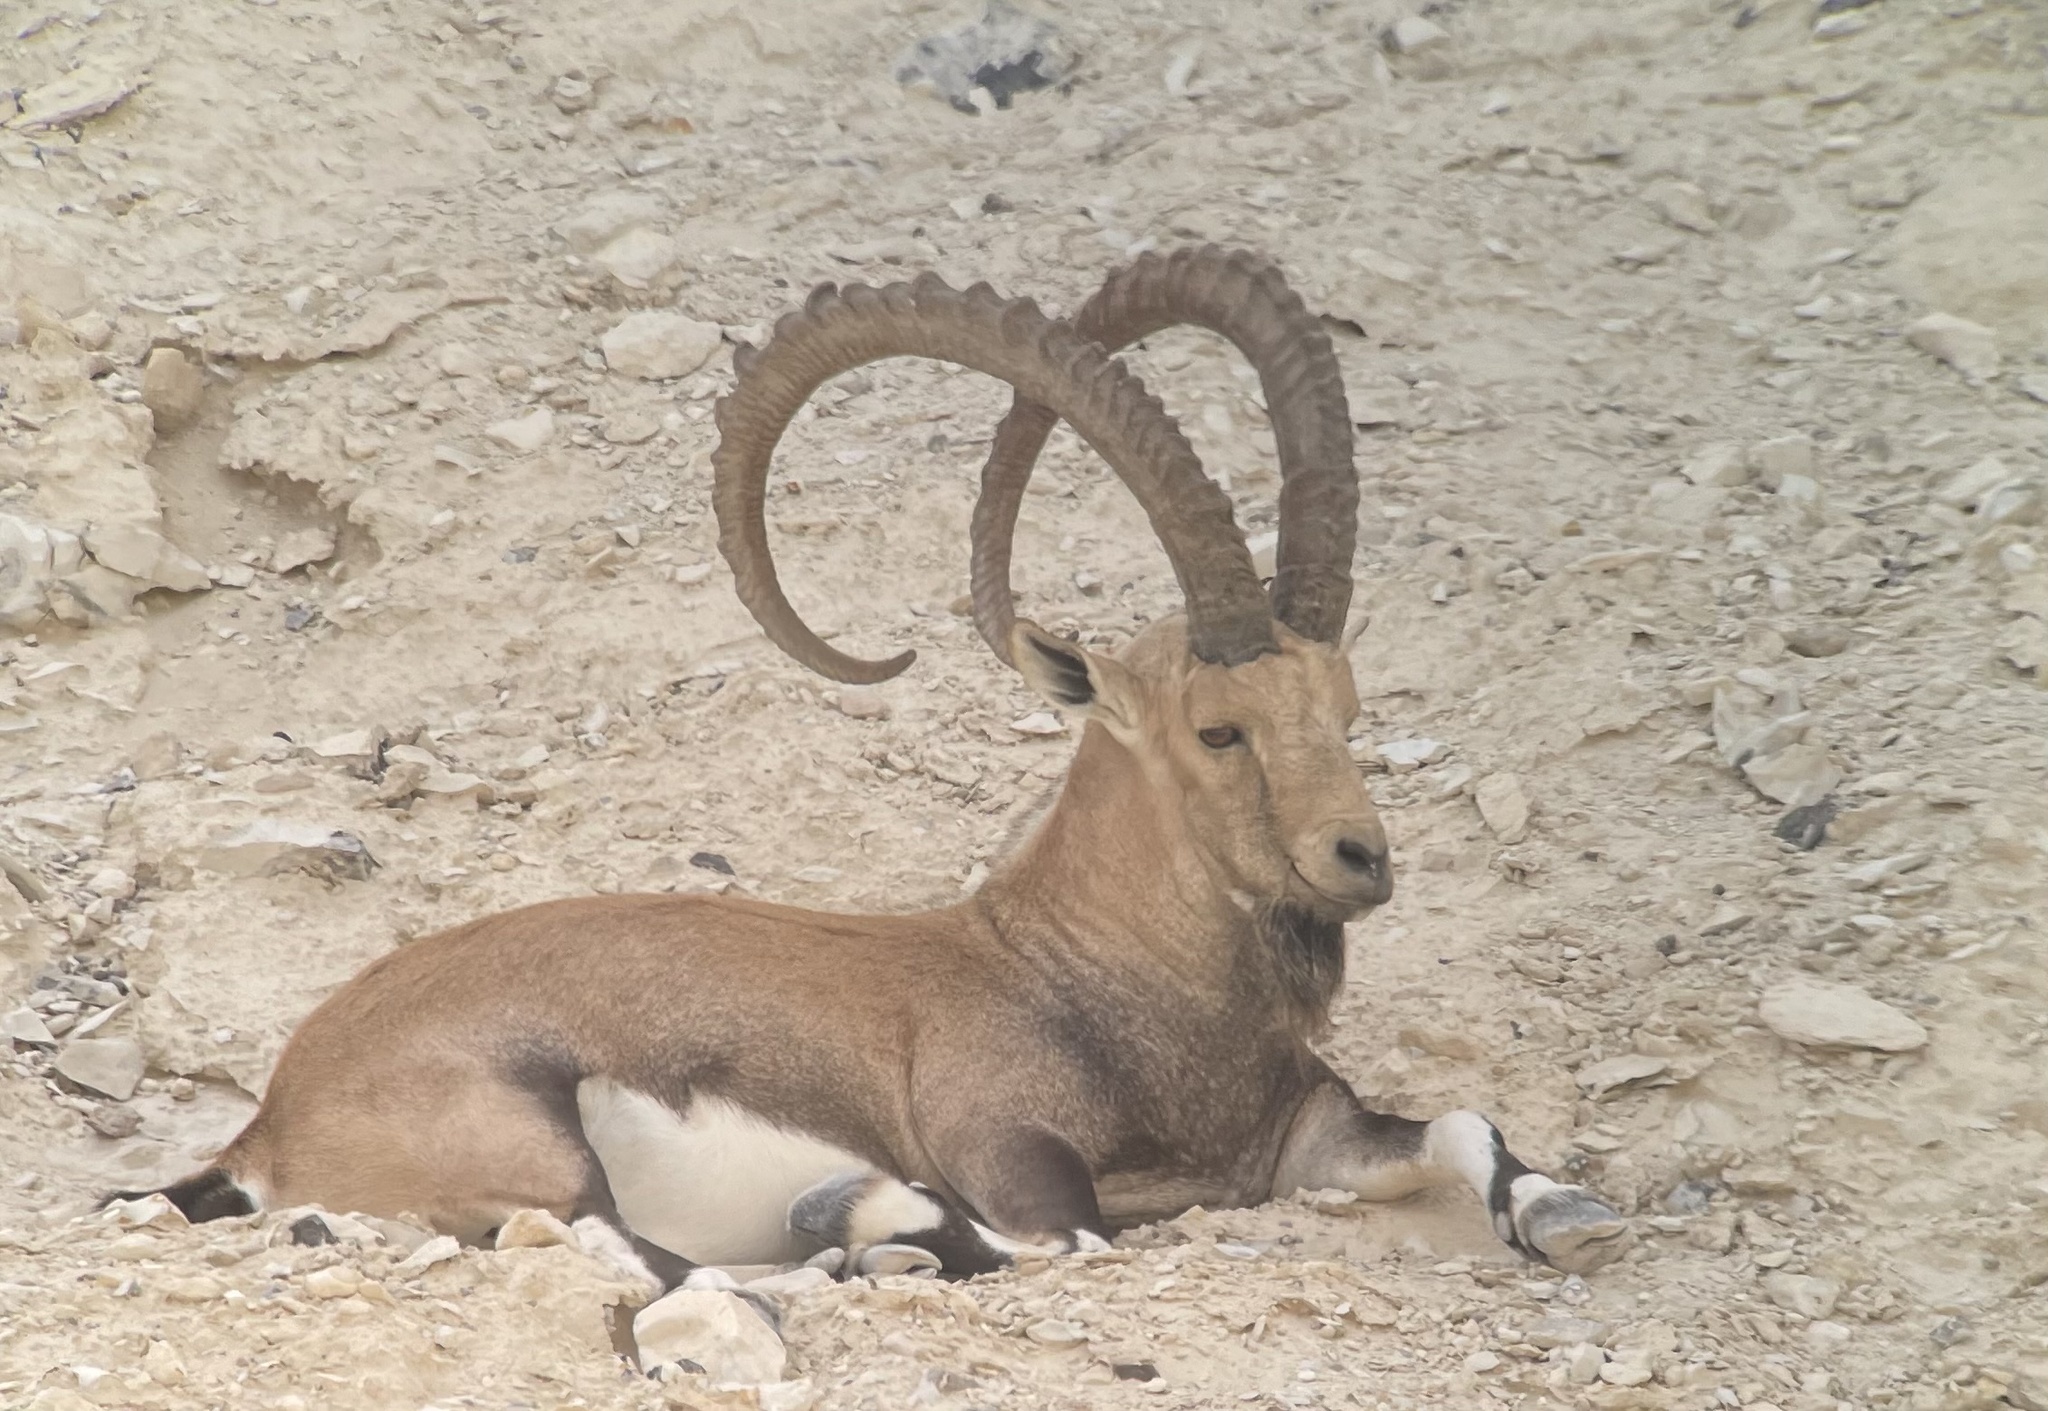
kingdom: Animalia
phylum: Chordata
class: Mammalia
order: Artiodactyla
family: Bovidae
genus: Capra
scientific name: Capra nubiana
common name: Nubian ibex
